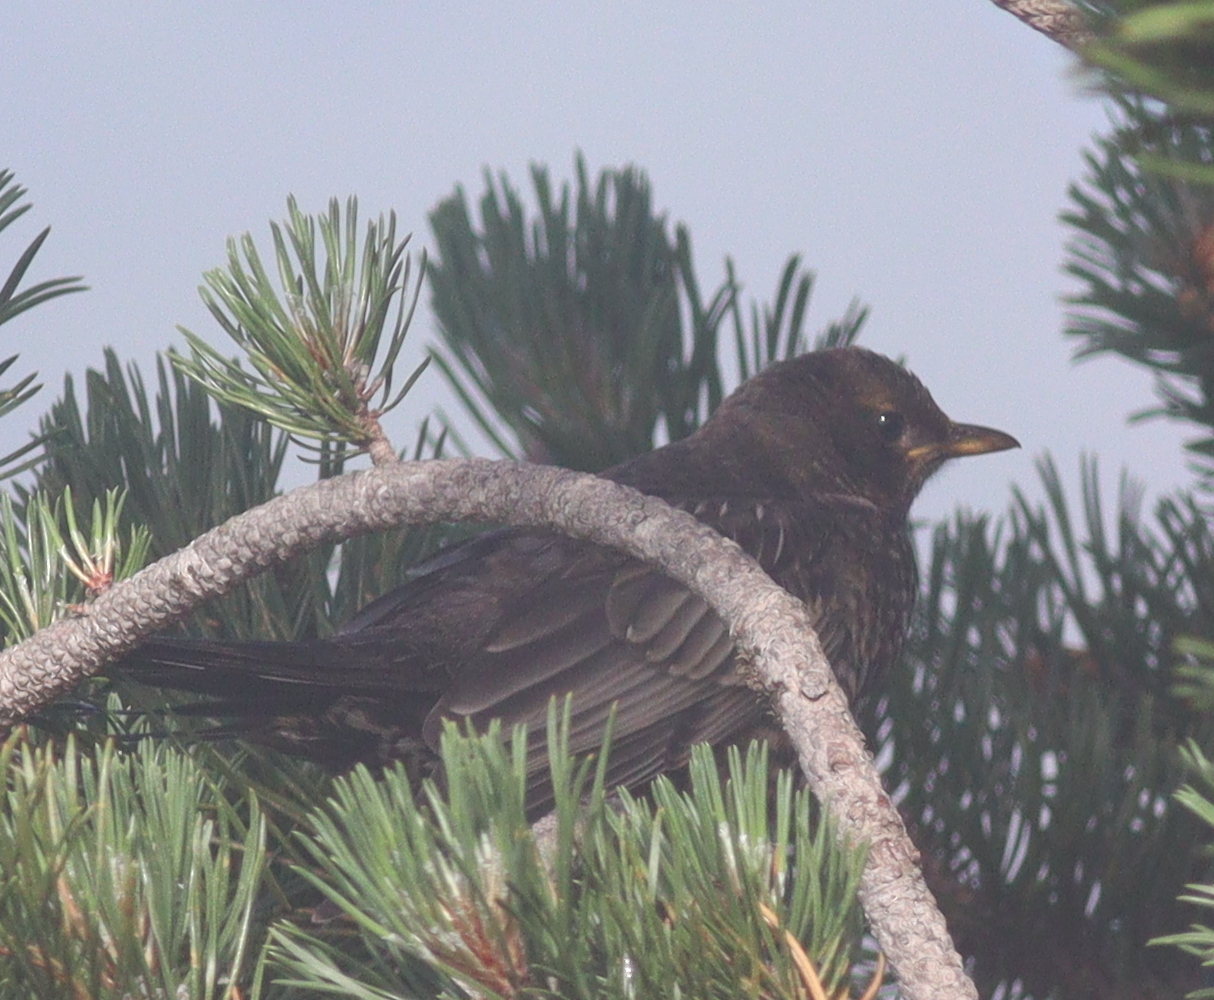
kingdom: Animalia
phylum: Chordata
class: Aves
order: Passeriformes
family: Turdidae
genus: Turdus
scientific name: Turdus torquatus
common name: Ring ouzel
